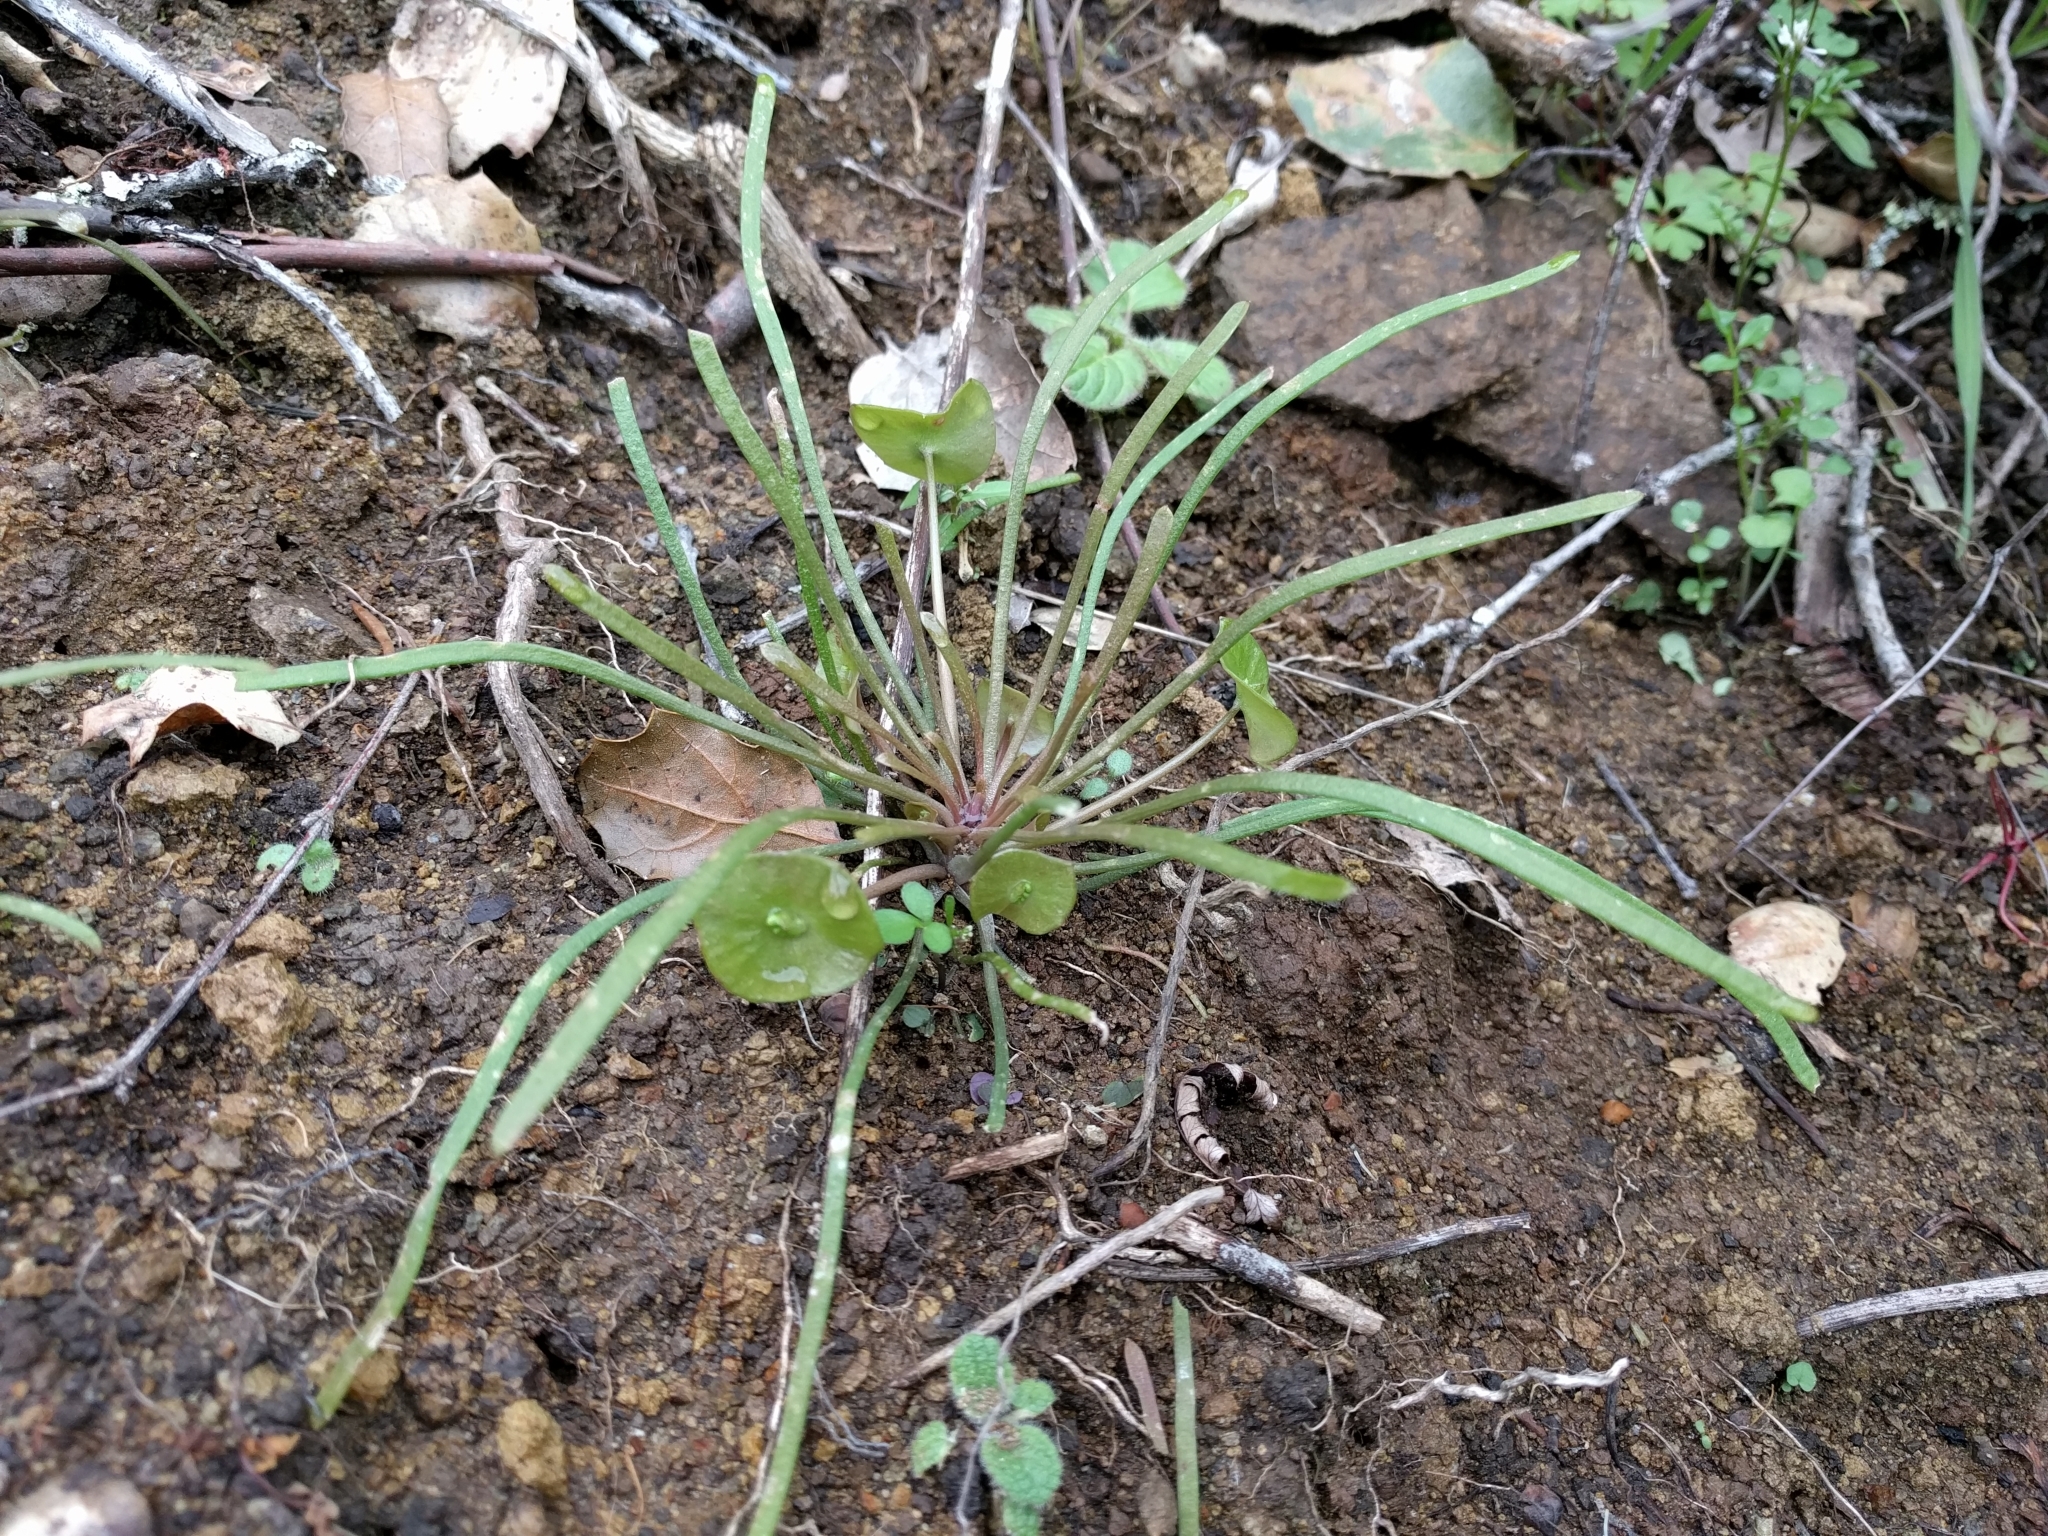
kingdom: Plantae
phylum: Tracheophyta
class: Magnoliopsida
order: Caryophyllales
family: Montiaceae
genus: Claytonia
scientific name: Claytonia parviflora
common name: Indian-lettuce
